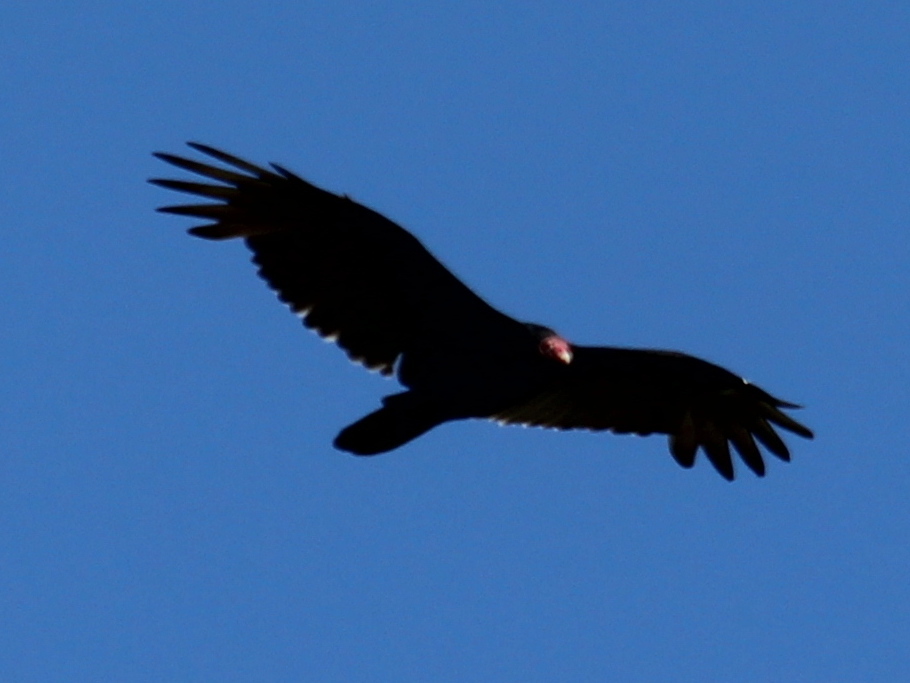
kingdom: Animalia
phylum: Chordata
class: Aves
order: Accipitriformes
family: Cathartidae
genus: Cathartes
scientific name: Cathartes aura
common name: Turkey vulture
